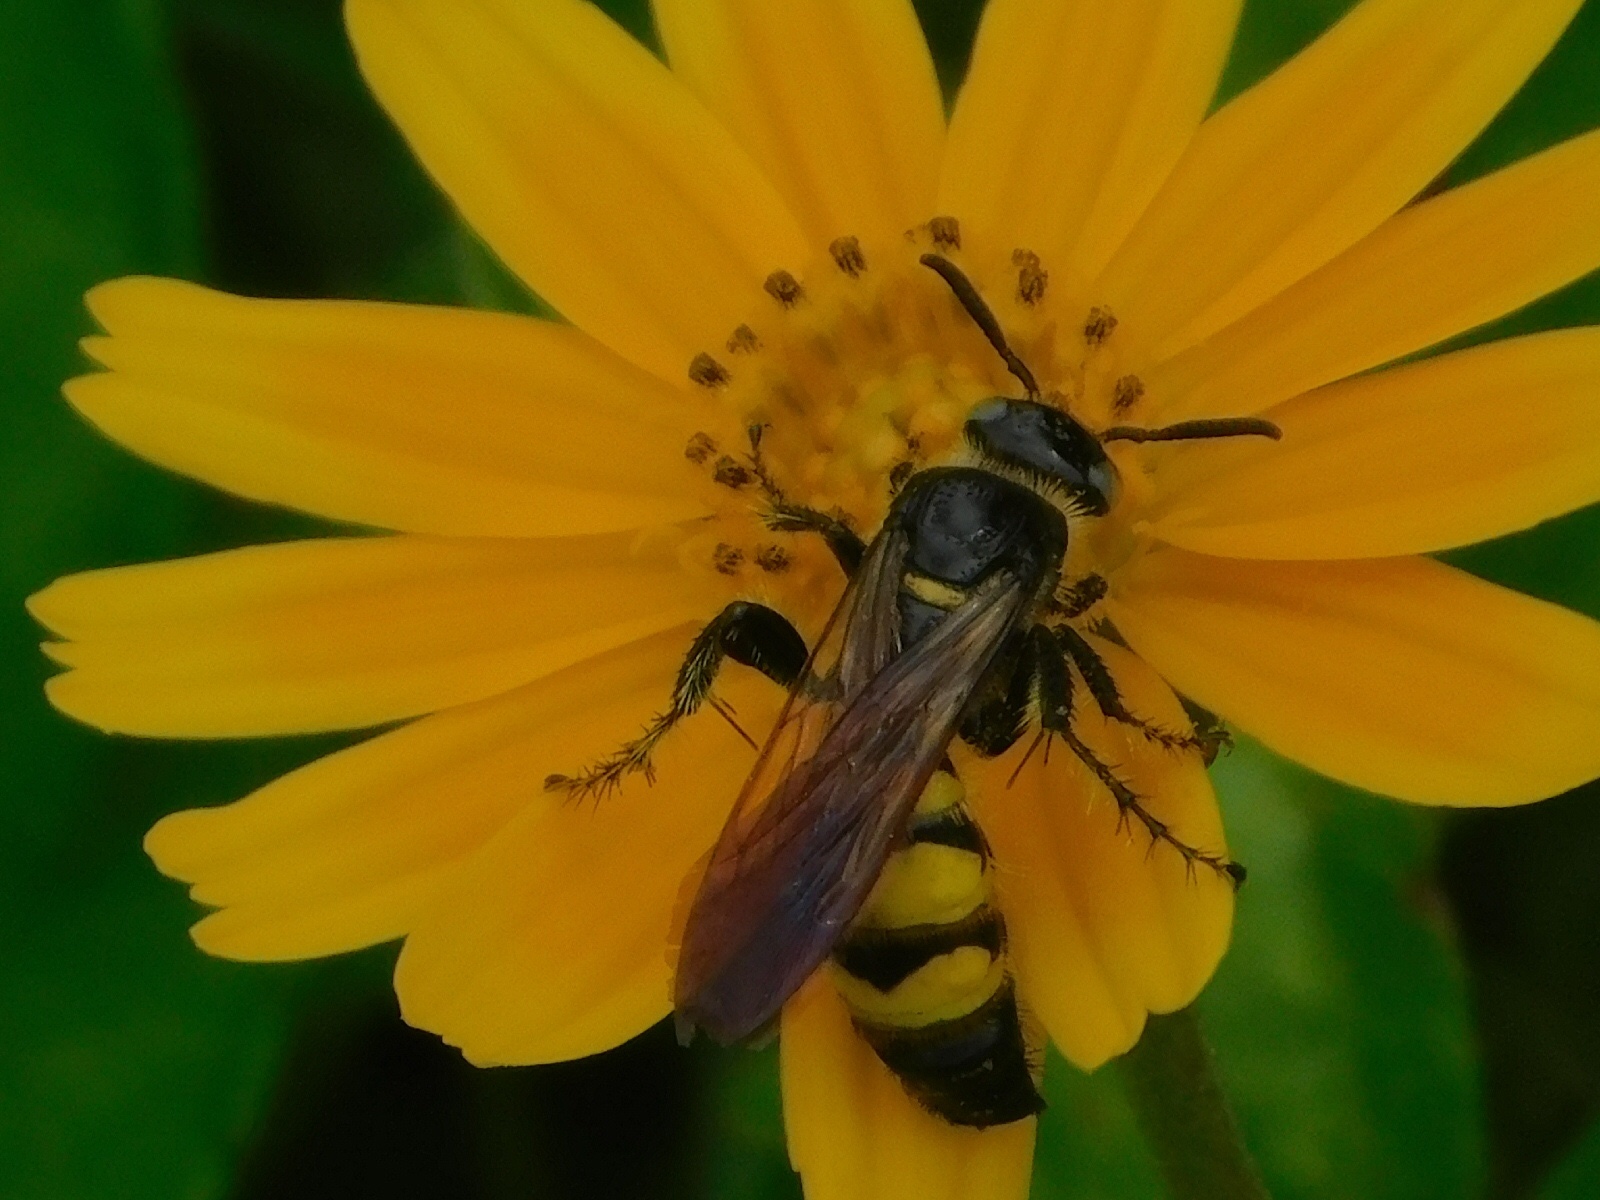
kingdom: Animalia
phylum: Arthropoda
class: Insecta
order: Hymenoptera
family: Scoliidae
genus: Dielis
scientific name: Dielis
